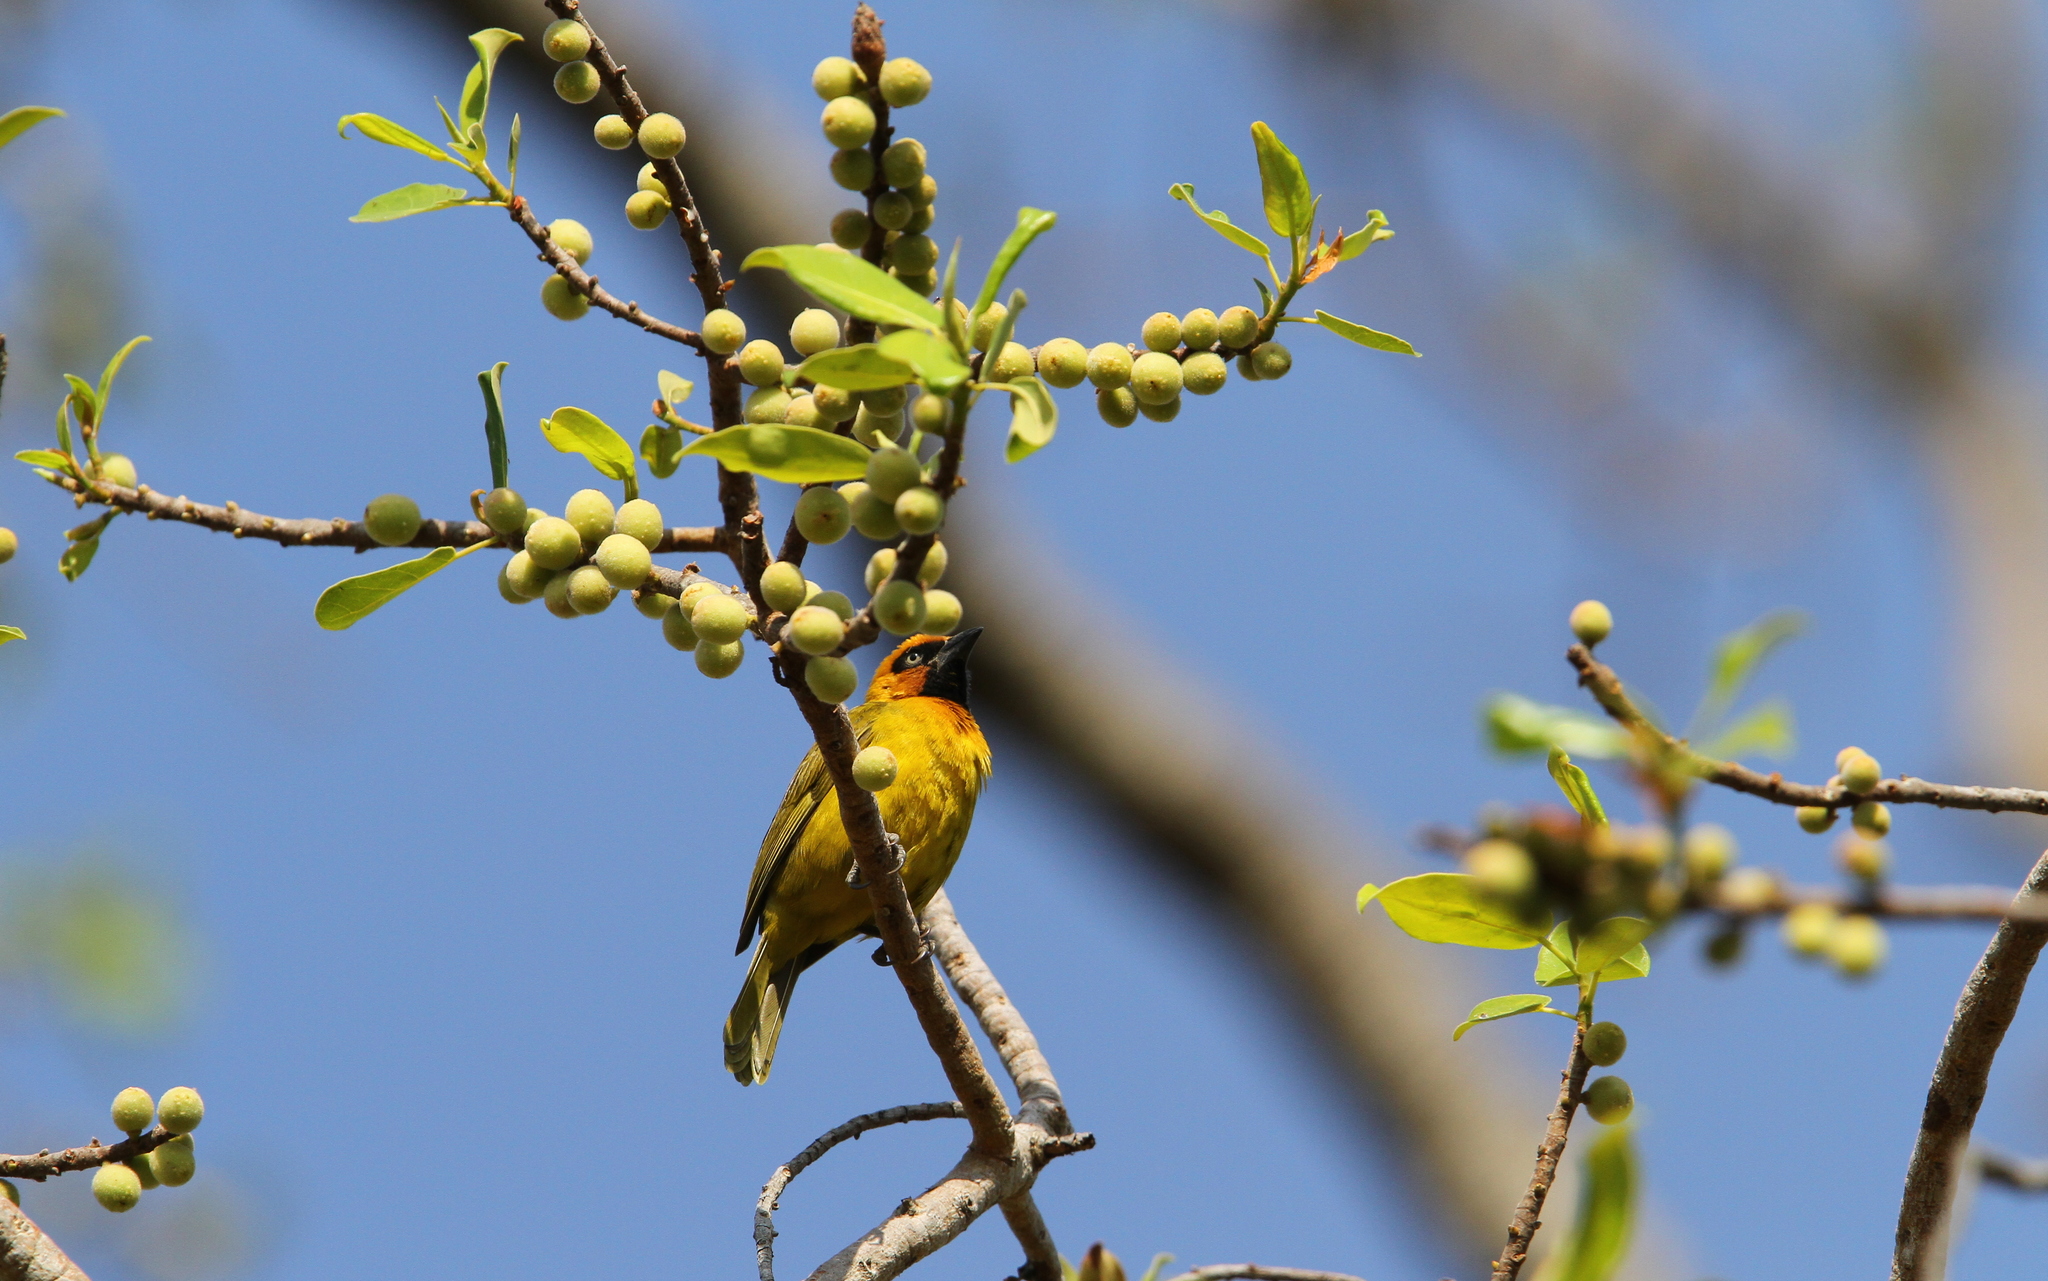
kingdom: Animalia
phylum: Chordata
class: Aves
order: Passeriformes
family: Ploceidae
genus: Ploceus
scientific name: Ploceus brachypterus
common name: Olive-naped weaver
